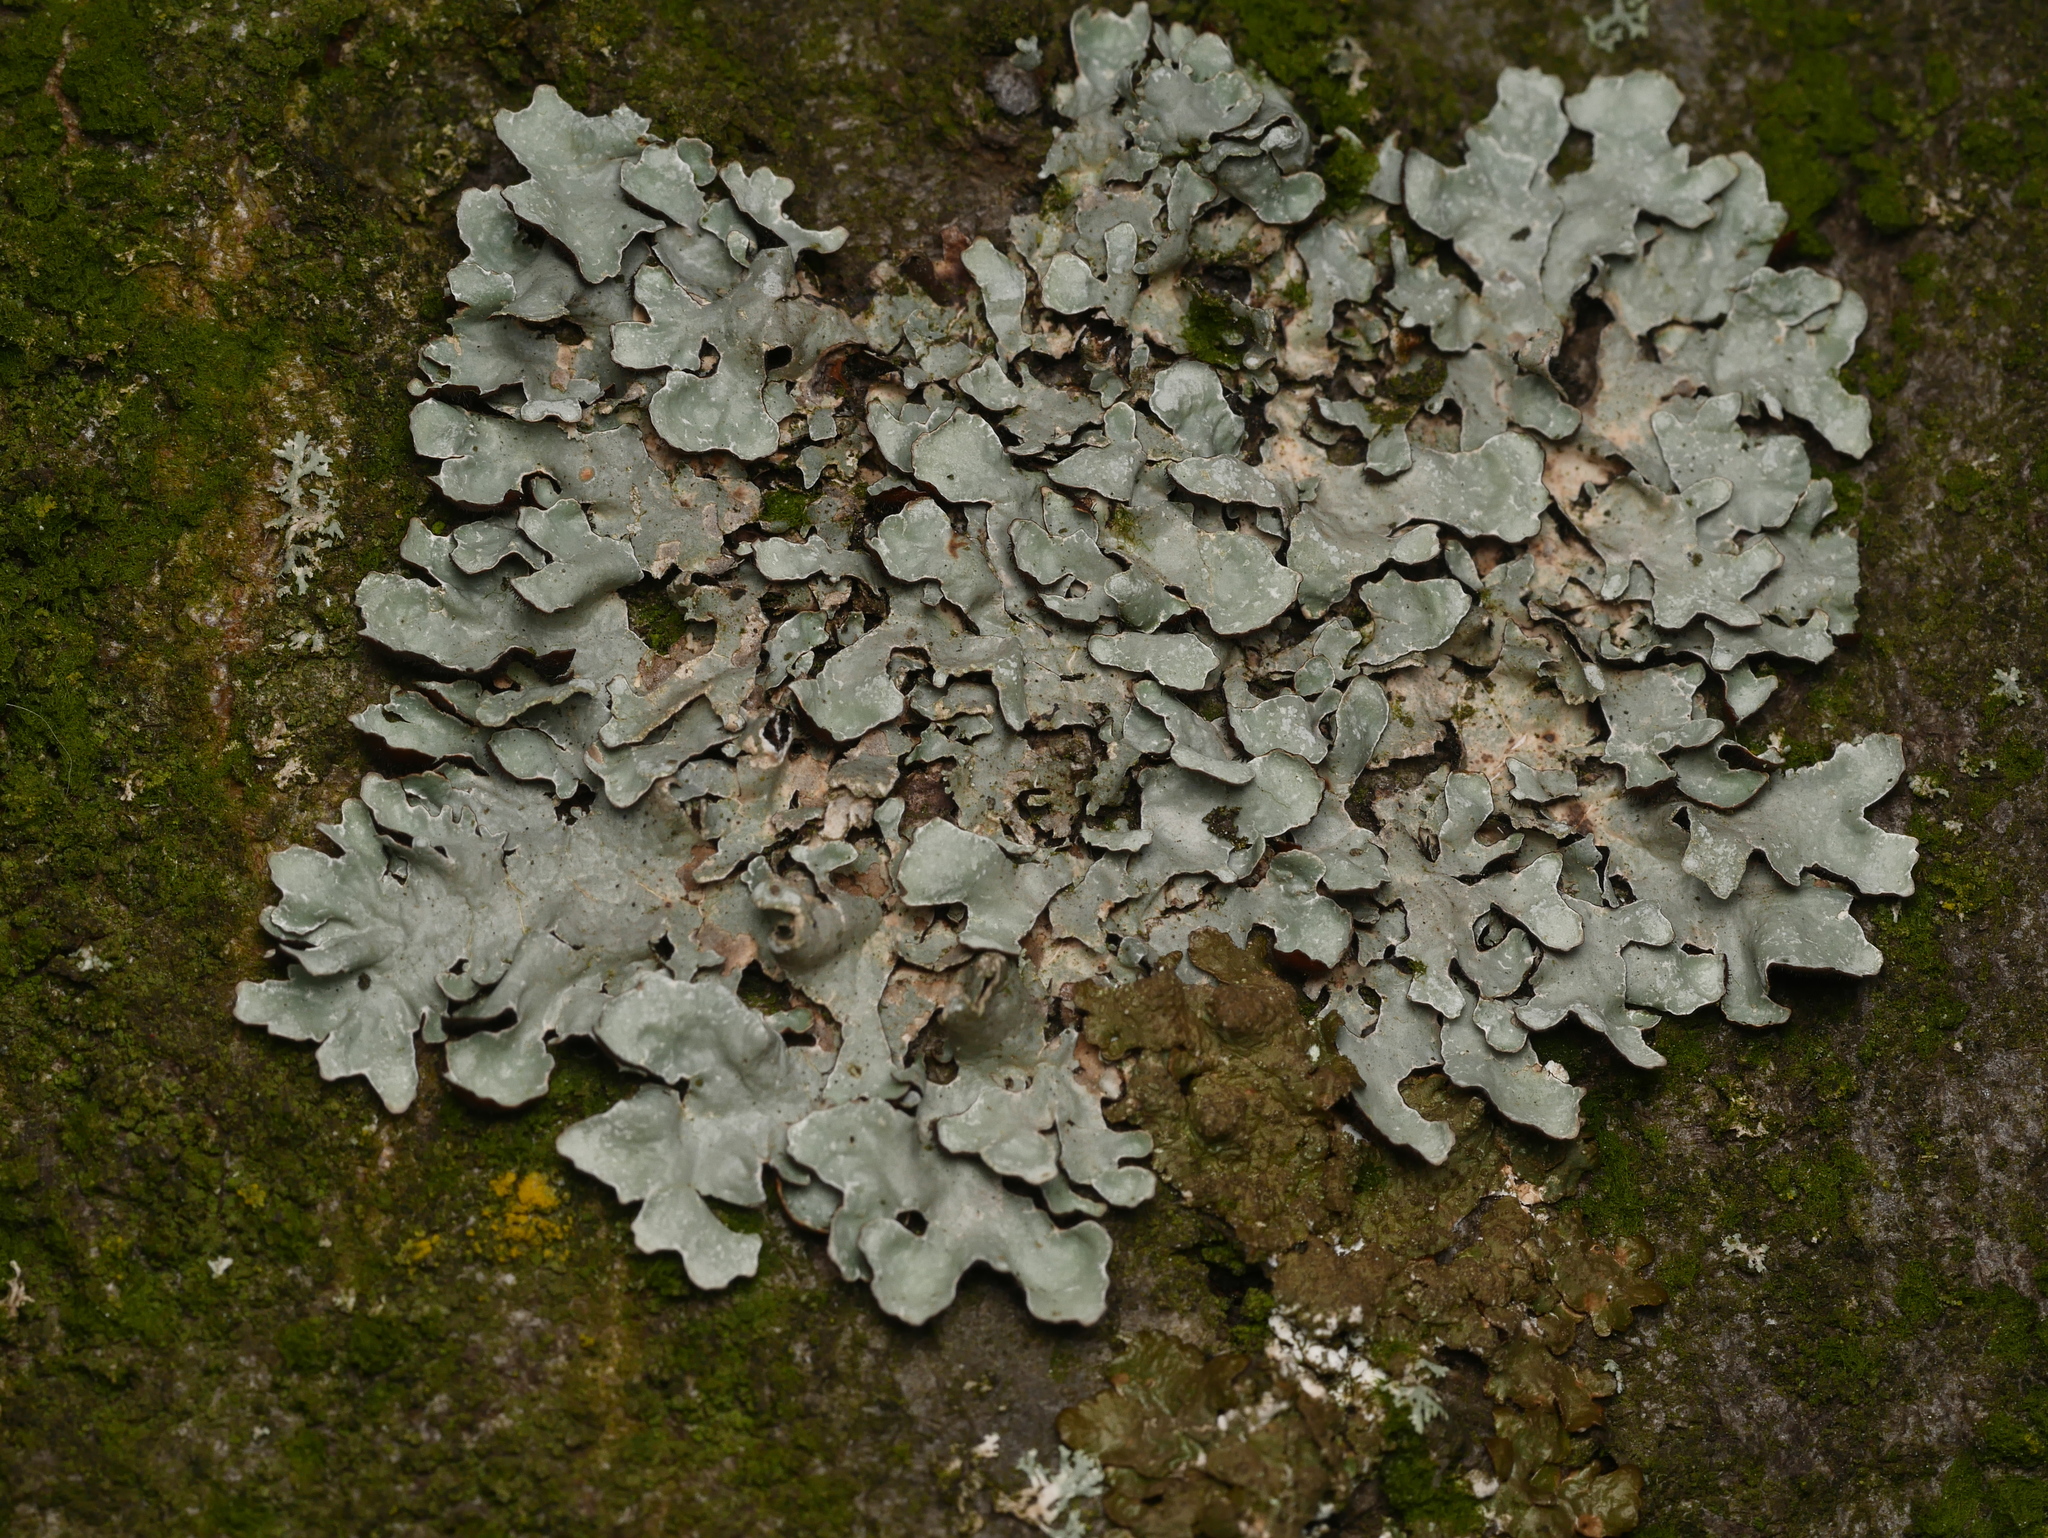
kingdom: Fungi
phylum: Ascomycota
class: Lecanoromycetes
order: Lecanorales
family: Parmeliaceae
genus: Parmelia
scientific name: Parmelia sulcata
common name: Netted shield lichen
